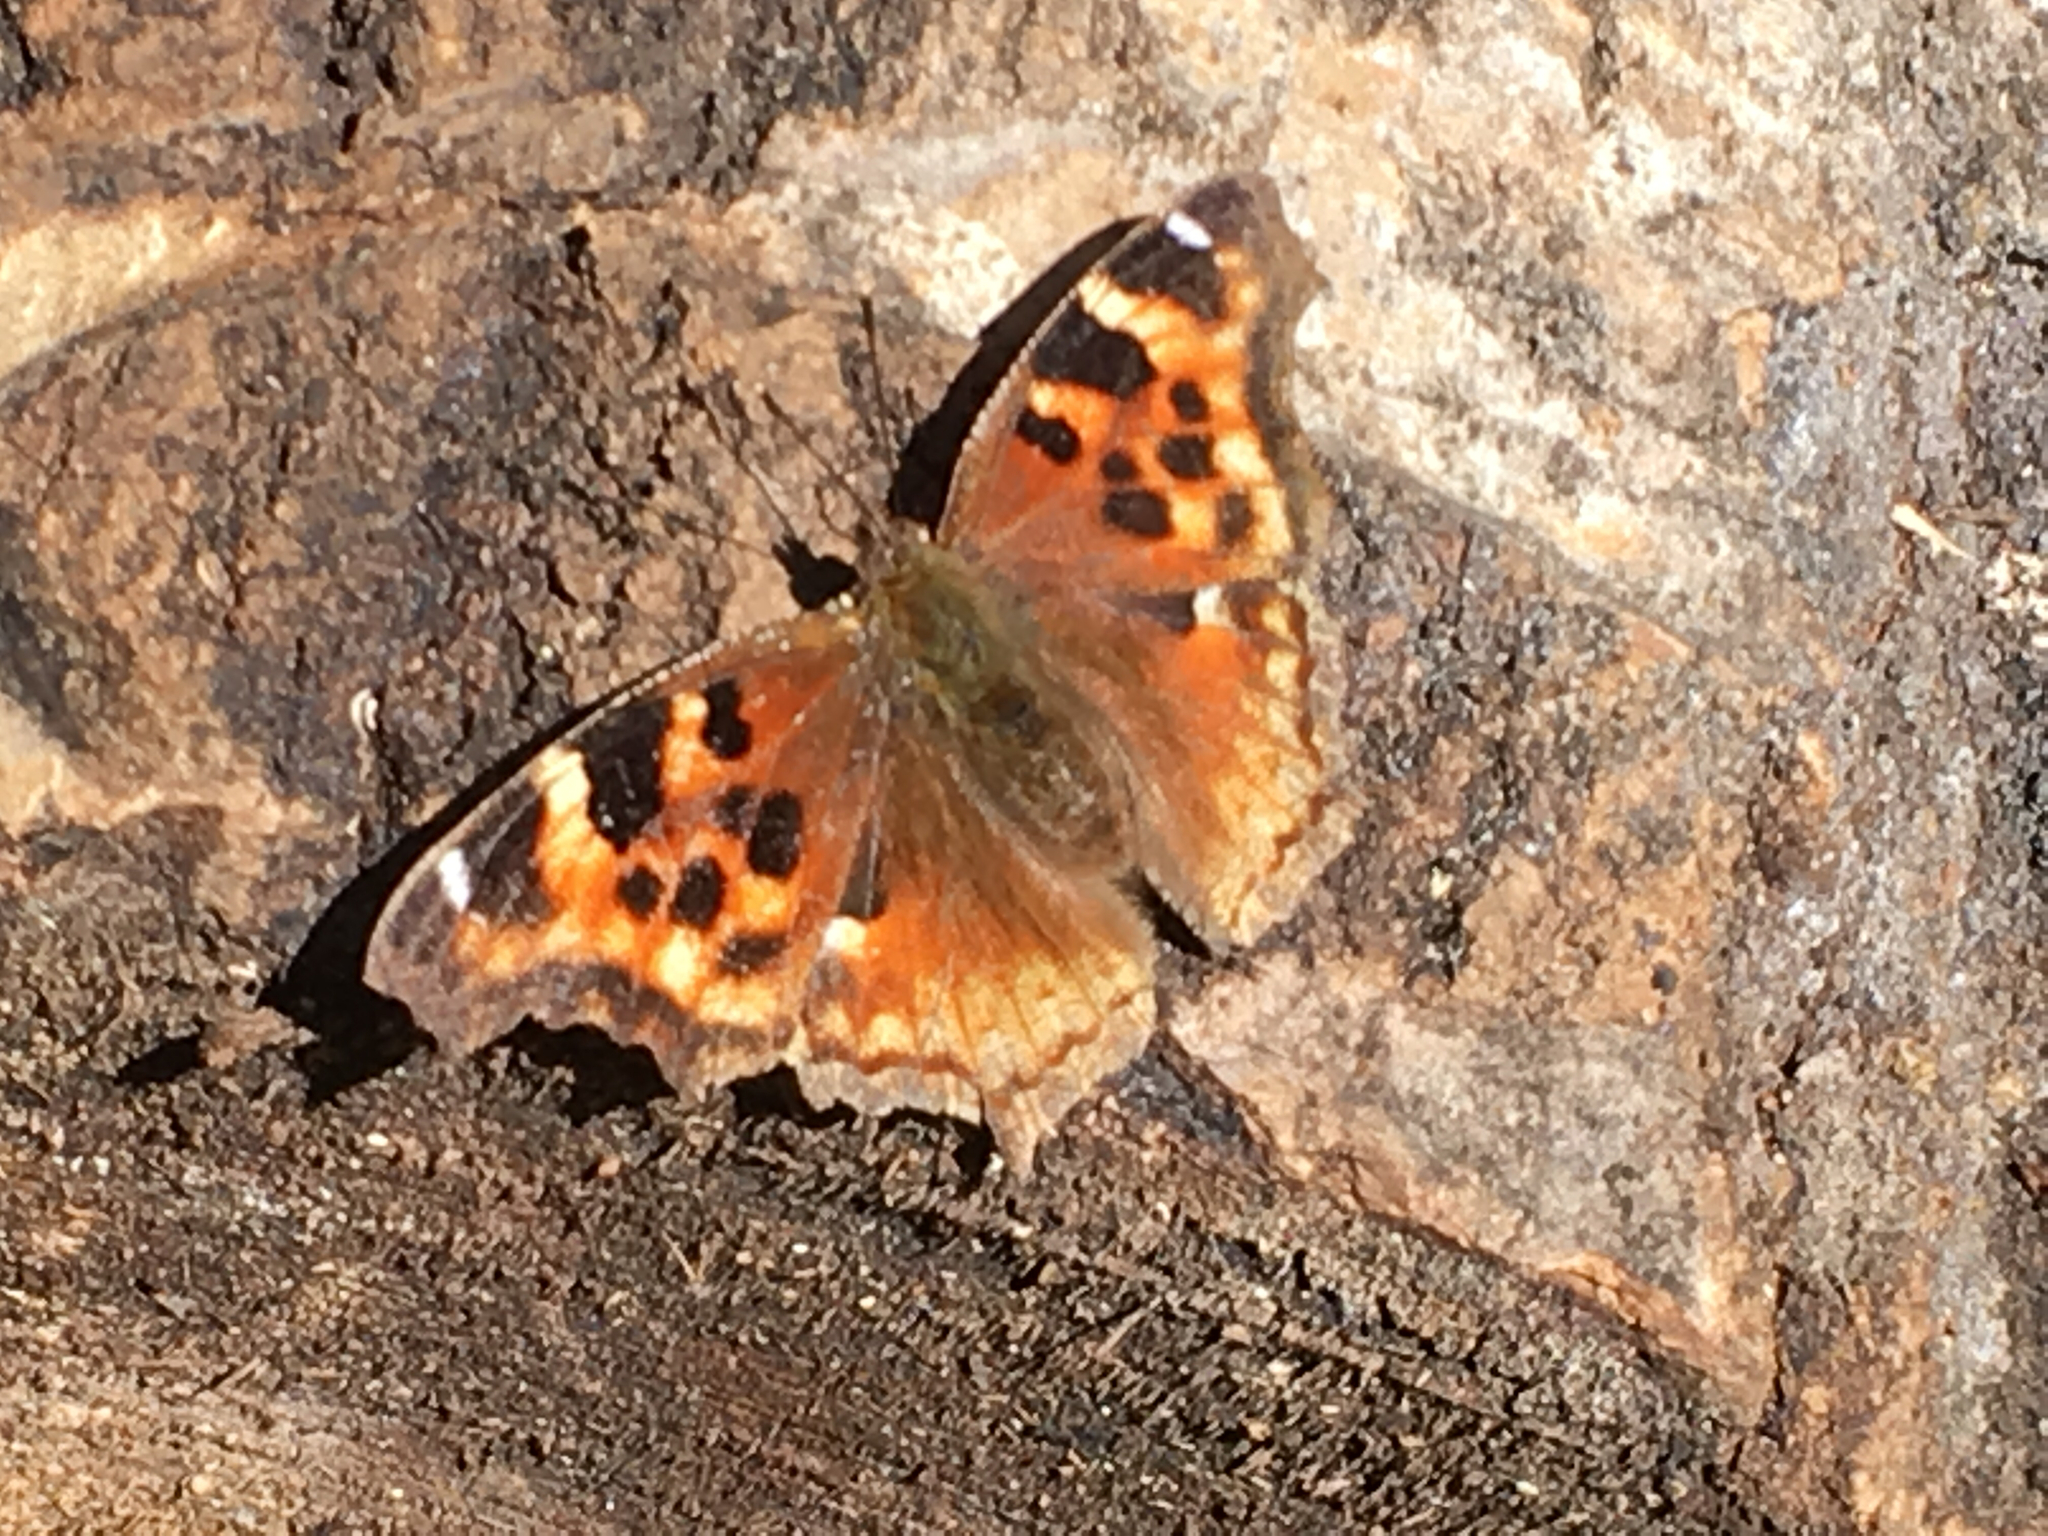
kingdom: Animalia
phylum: Arthropoda
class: Insecta
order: Lepidoptera
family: Nymphalidae
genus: Polygonia
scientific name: Polygonia vaualbum
